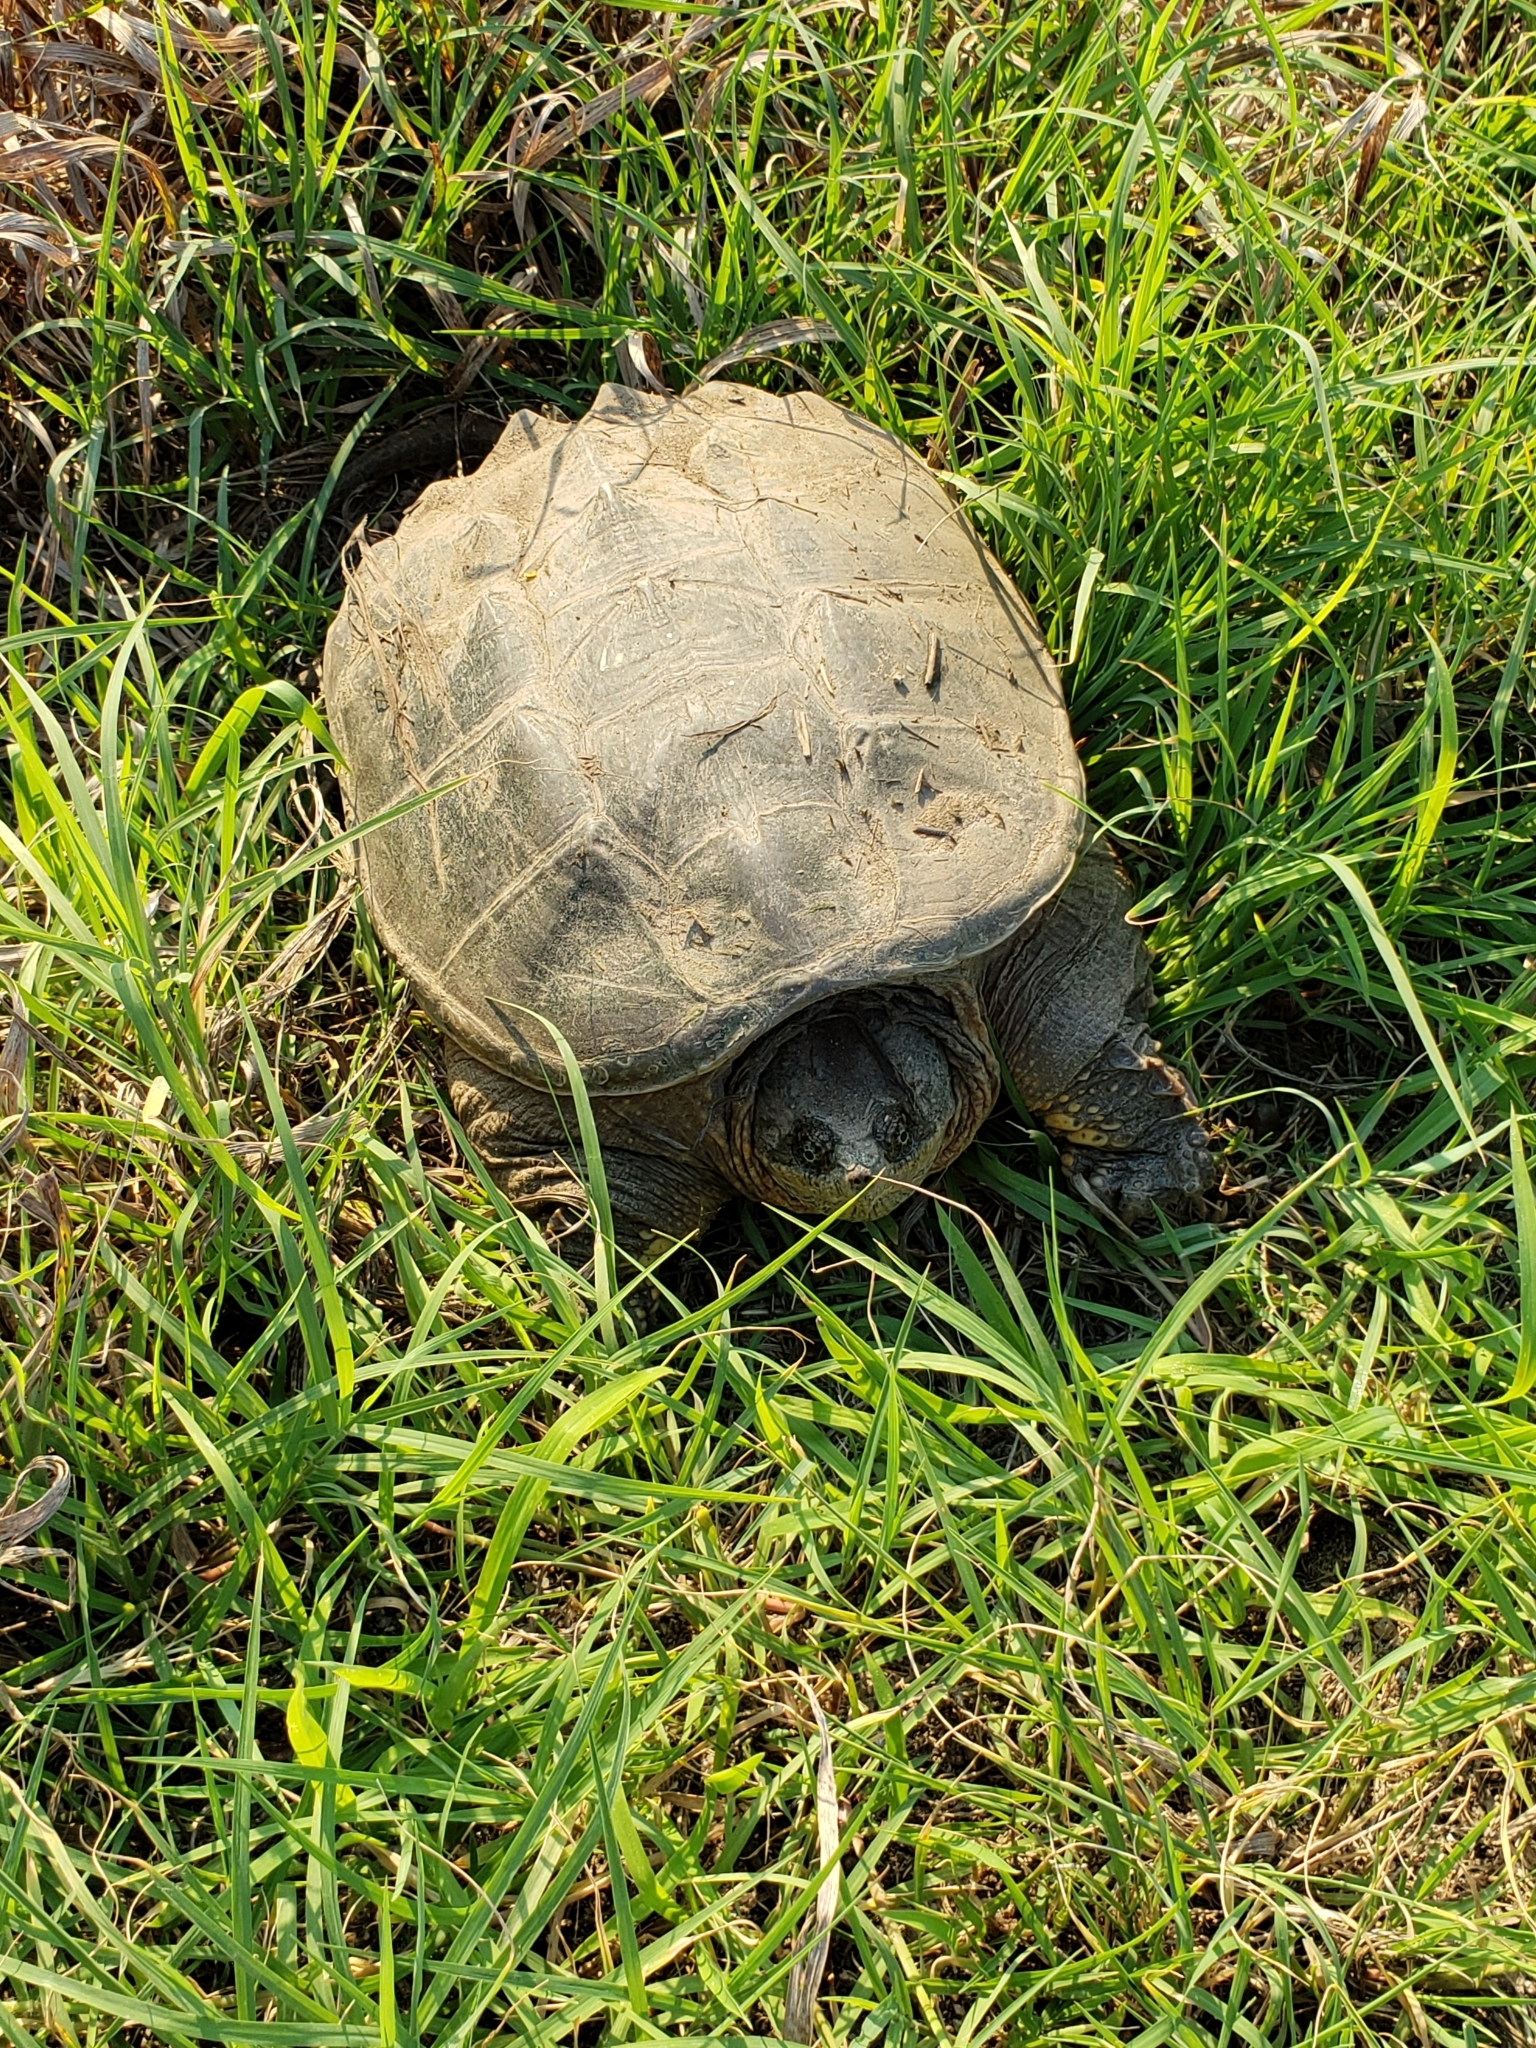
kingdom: Animalia
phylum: Chordata
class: Testudines
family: Chelydridae
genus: Chelydra
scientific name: Chelydra serpentina
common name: Common snapping turtle
